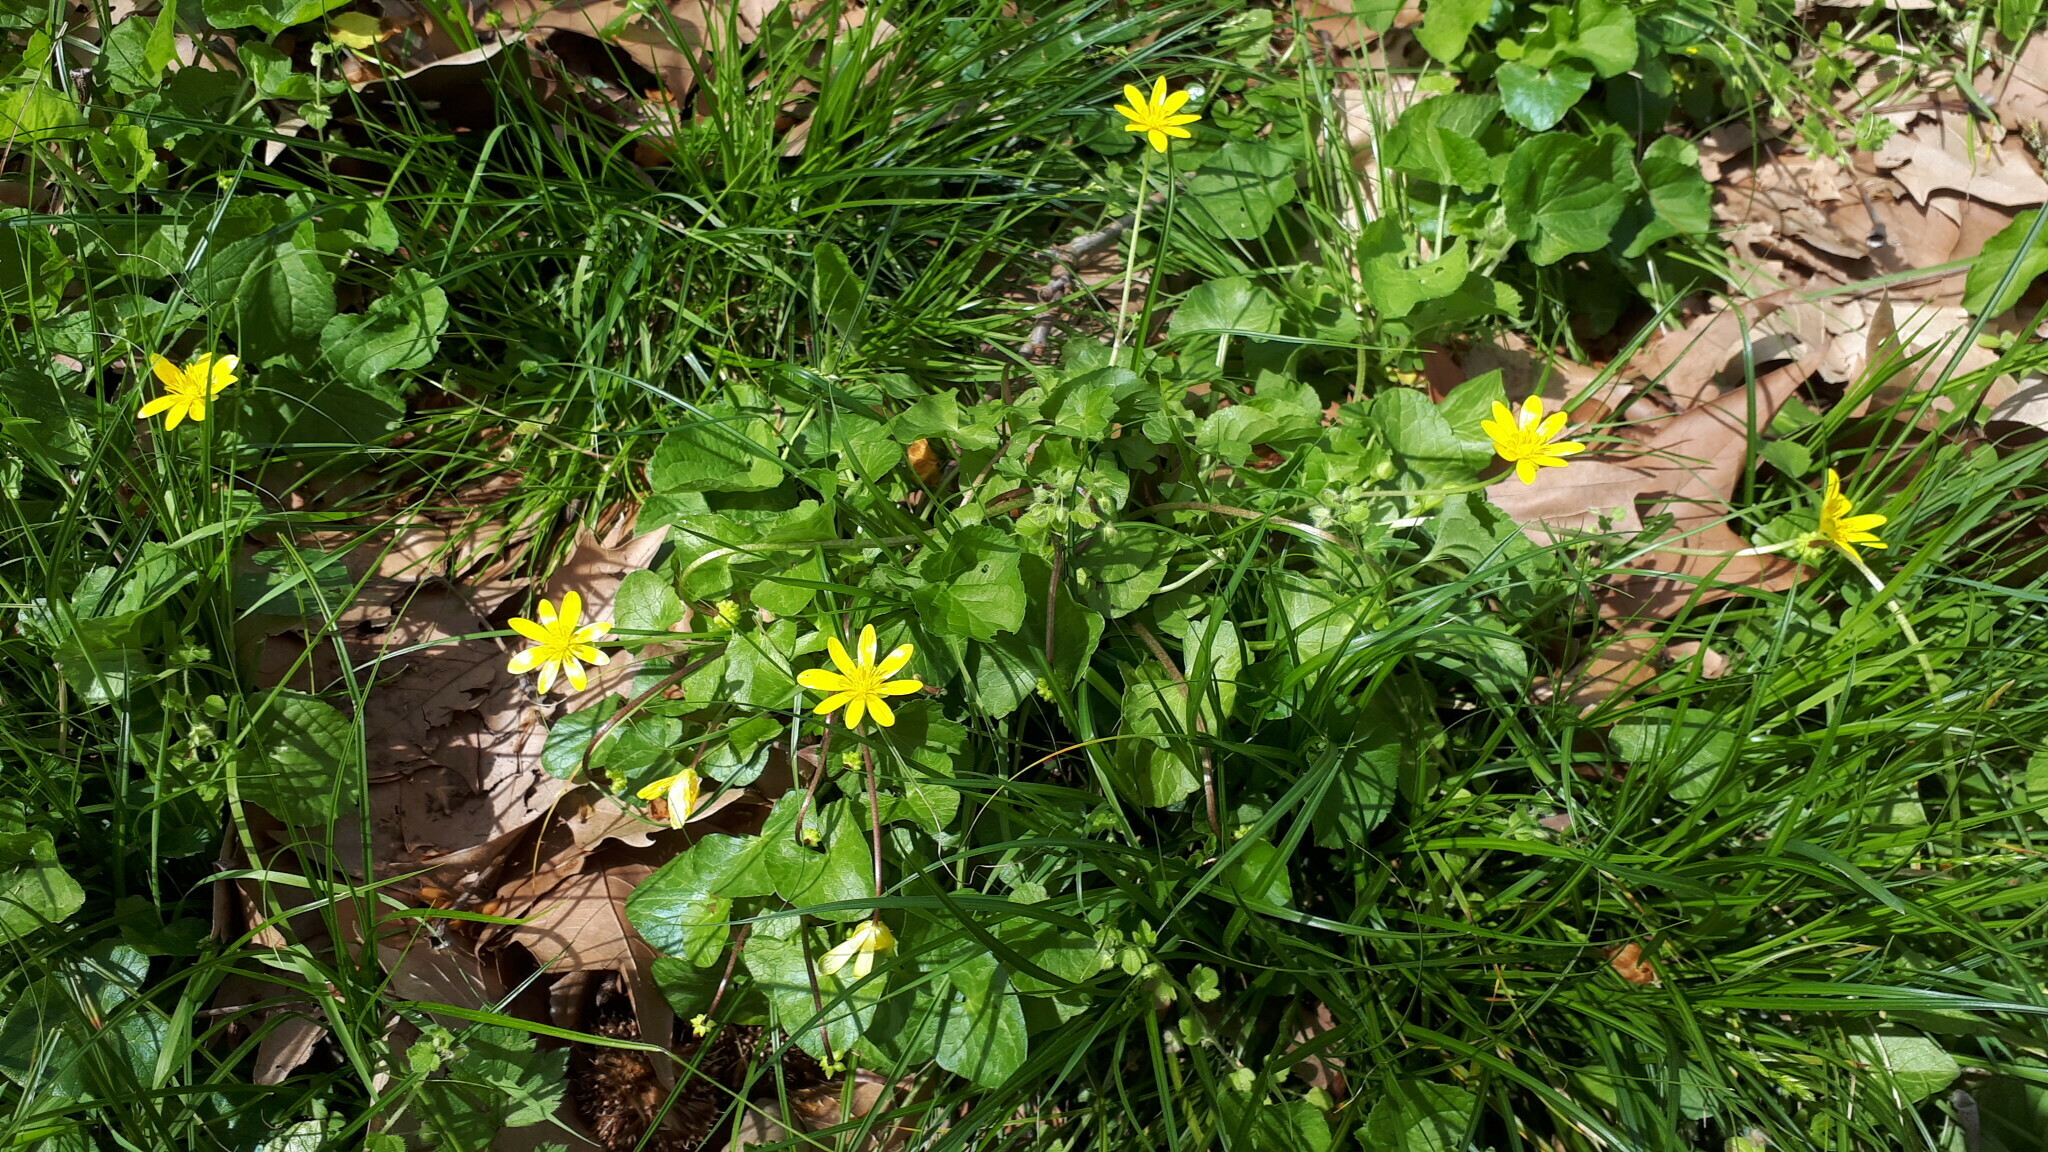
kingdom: Plantae
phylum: Tracheophyta
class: Magnoliopsida
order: Ranunculales
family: Ranunculaceae
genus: Ficaria
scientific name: Ficaria verna
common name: Lesser celandine
